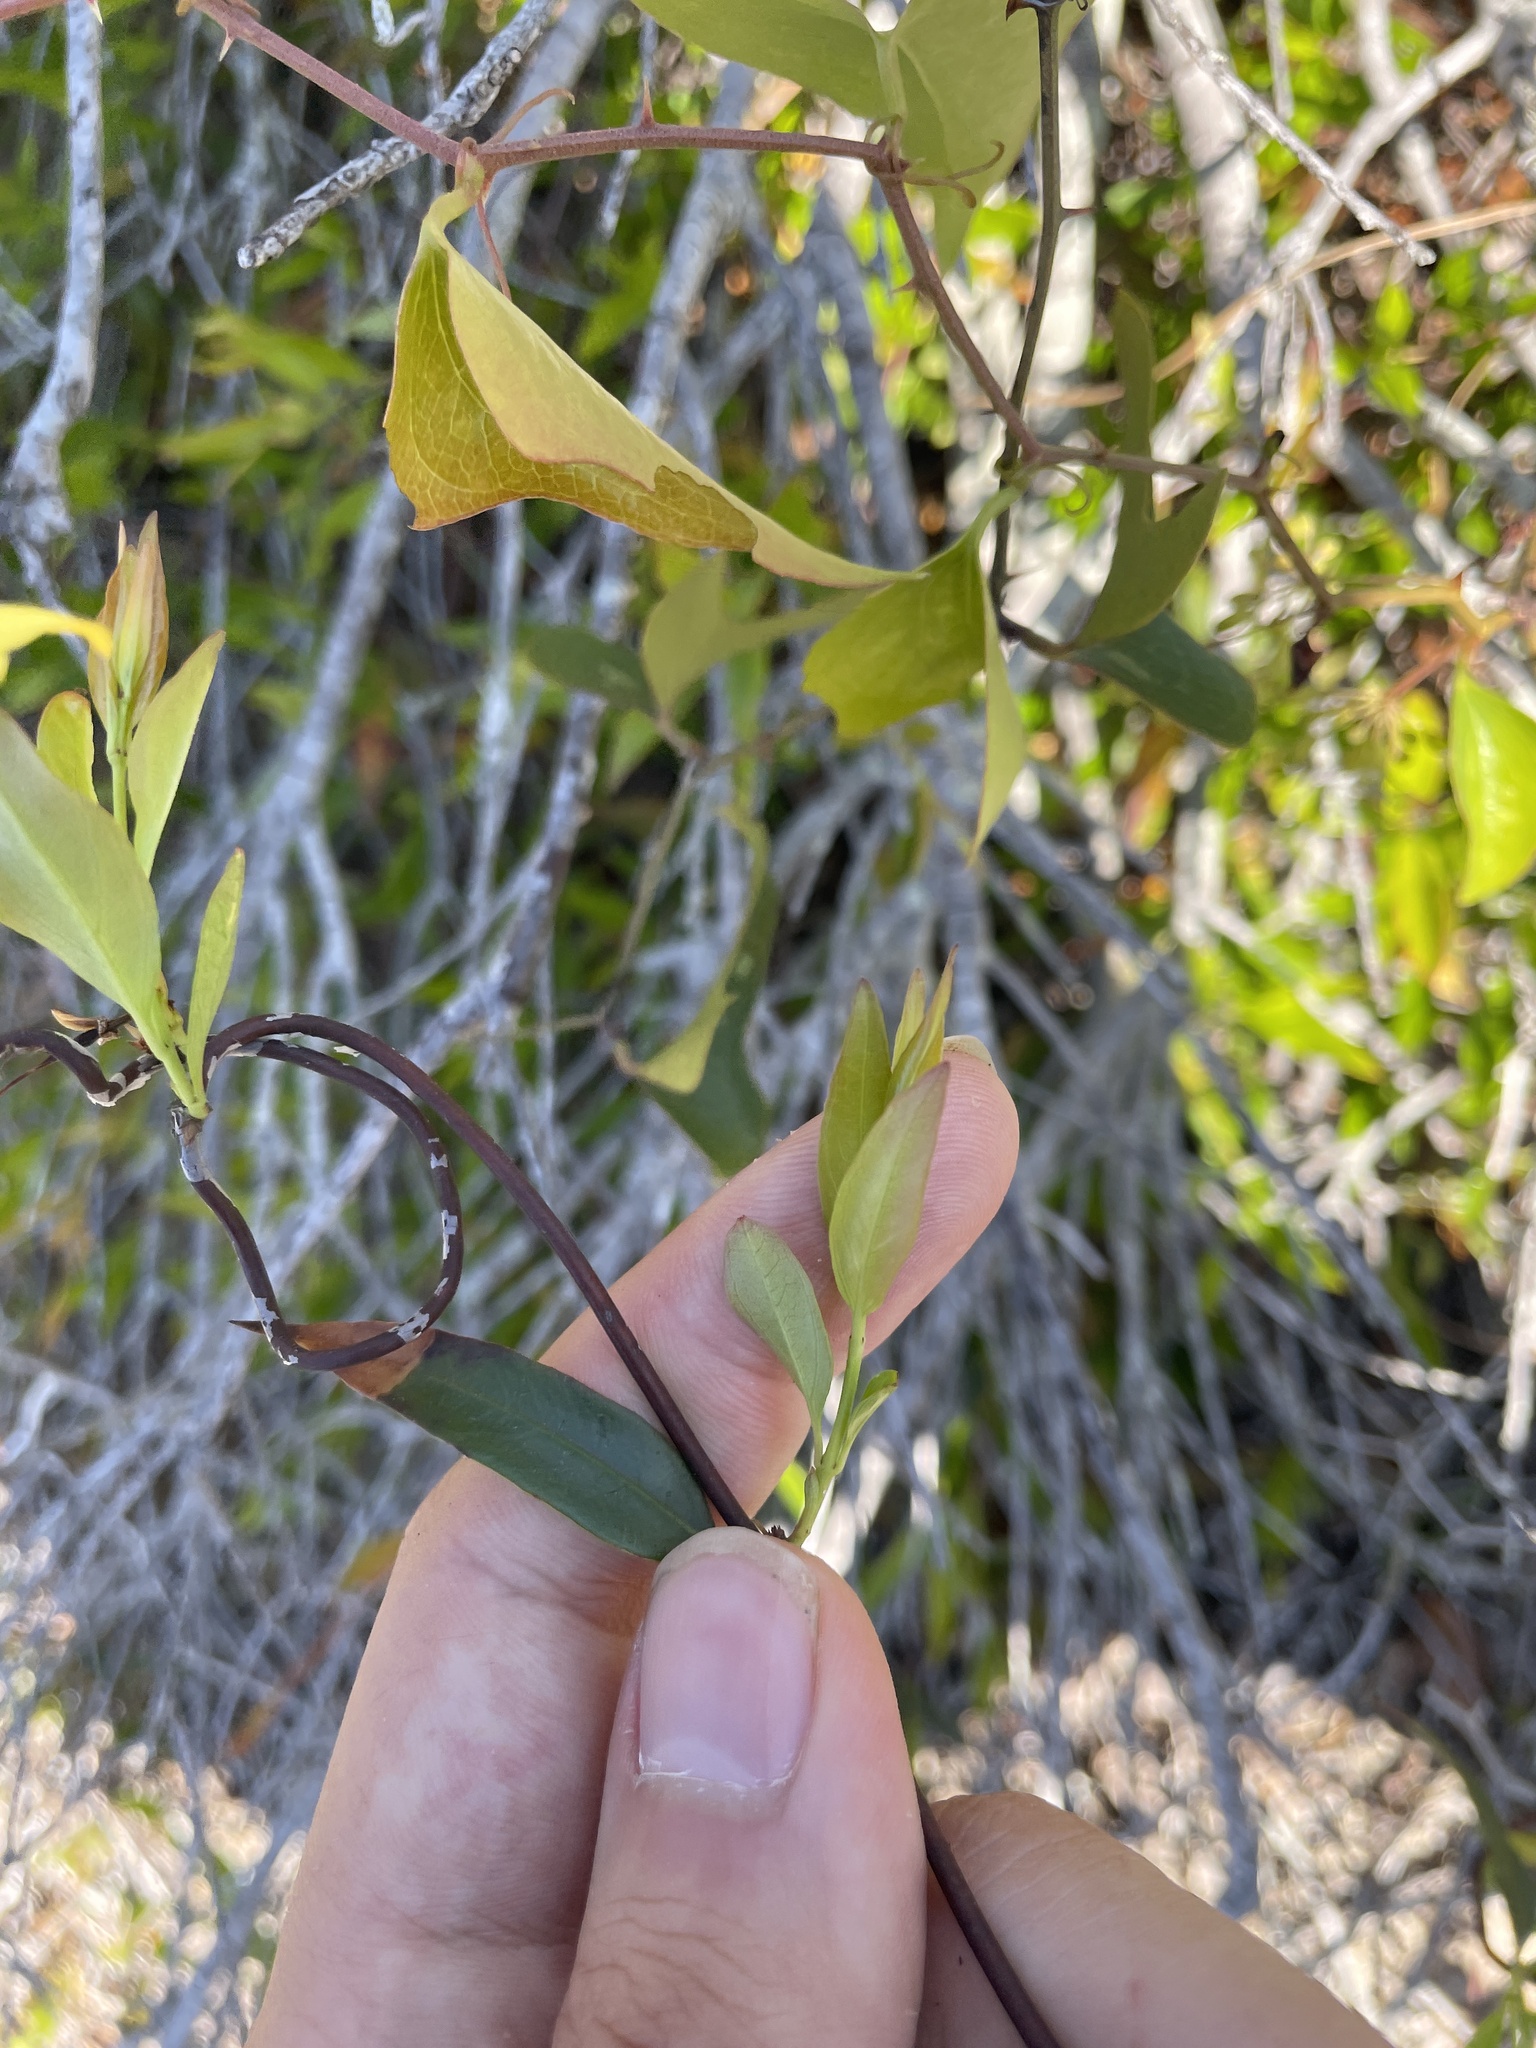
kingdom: Plantae
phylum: Tracheophyta
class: Magnoliopsida
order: Gentianales
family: Gelsemiaceae
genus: Gelsemium
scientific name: Gelsemium sempervirens
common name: Carolina-jasmine
